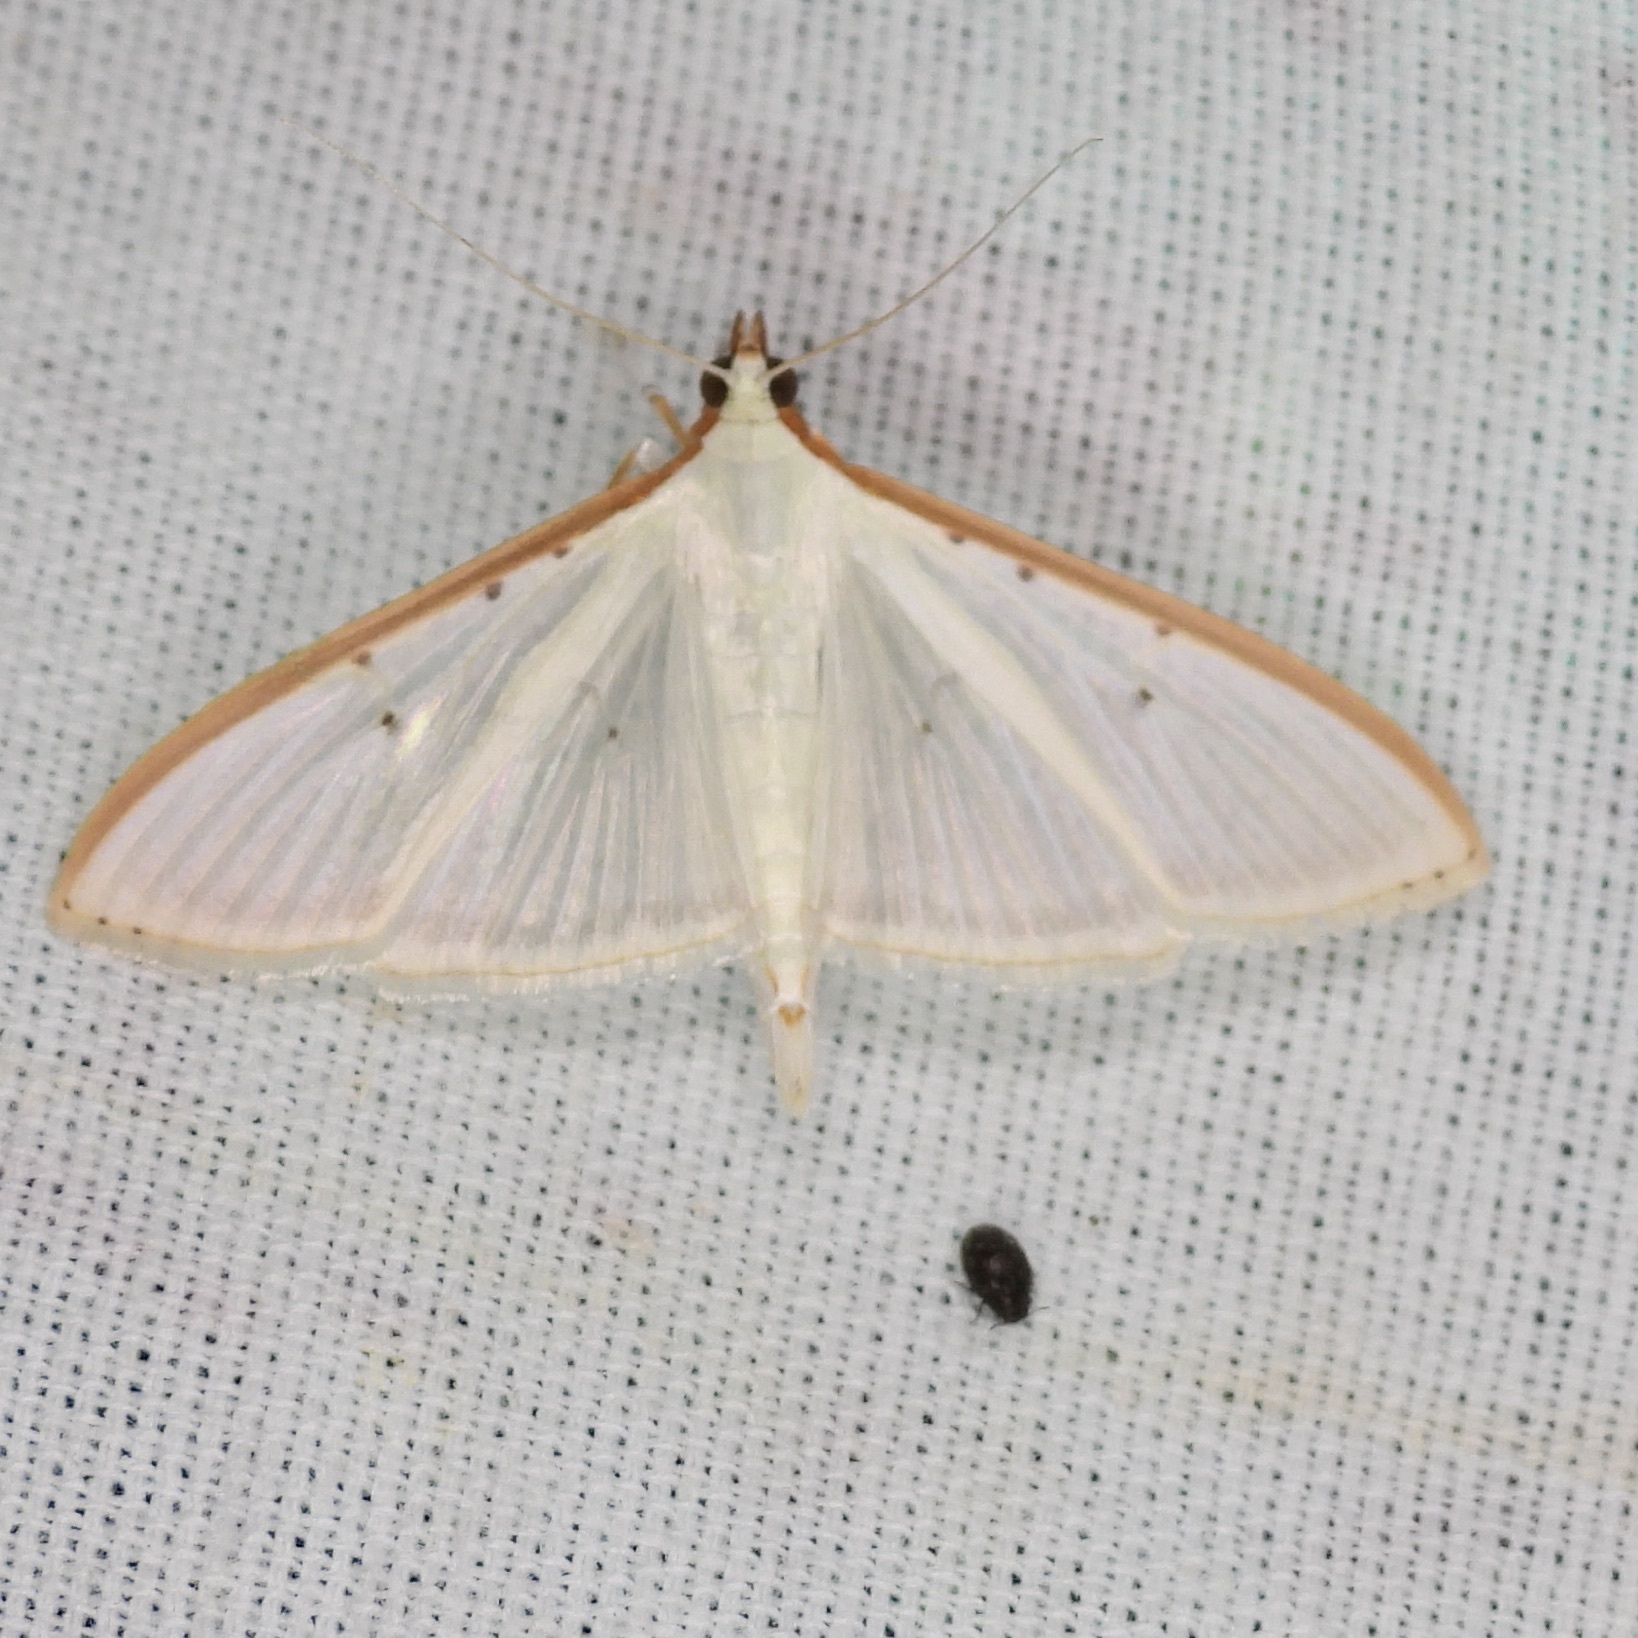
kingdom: Animalia
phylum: Arthropoda
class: Insecta
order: Lepidoptera
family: Crambidae
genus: Palpita
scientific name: Palpita quadristigmalis
